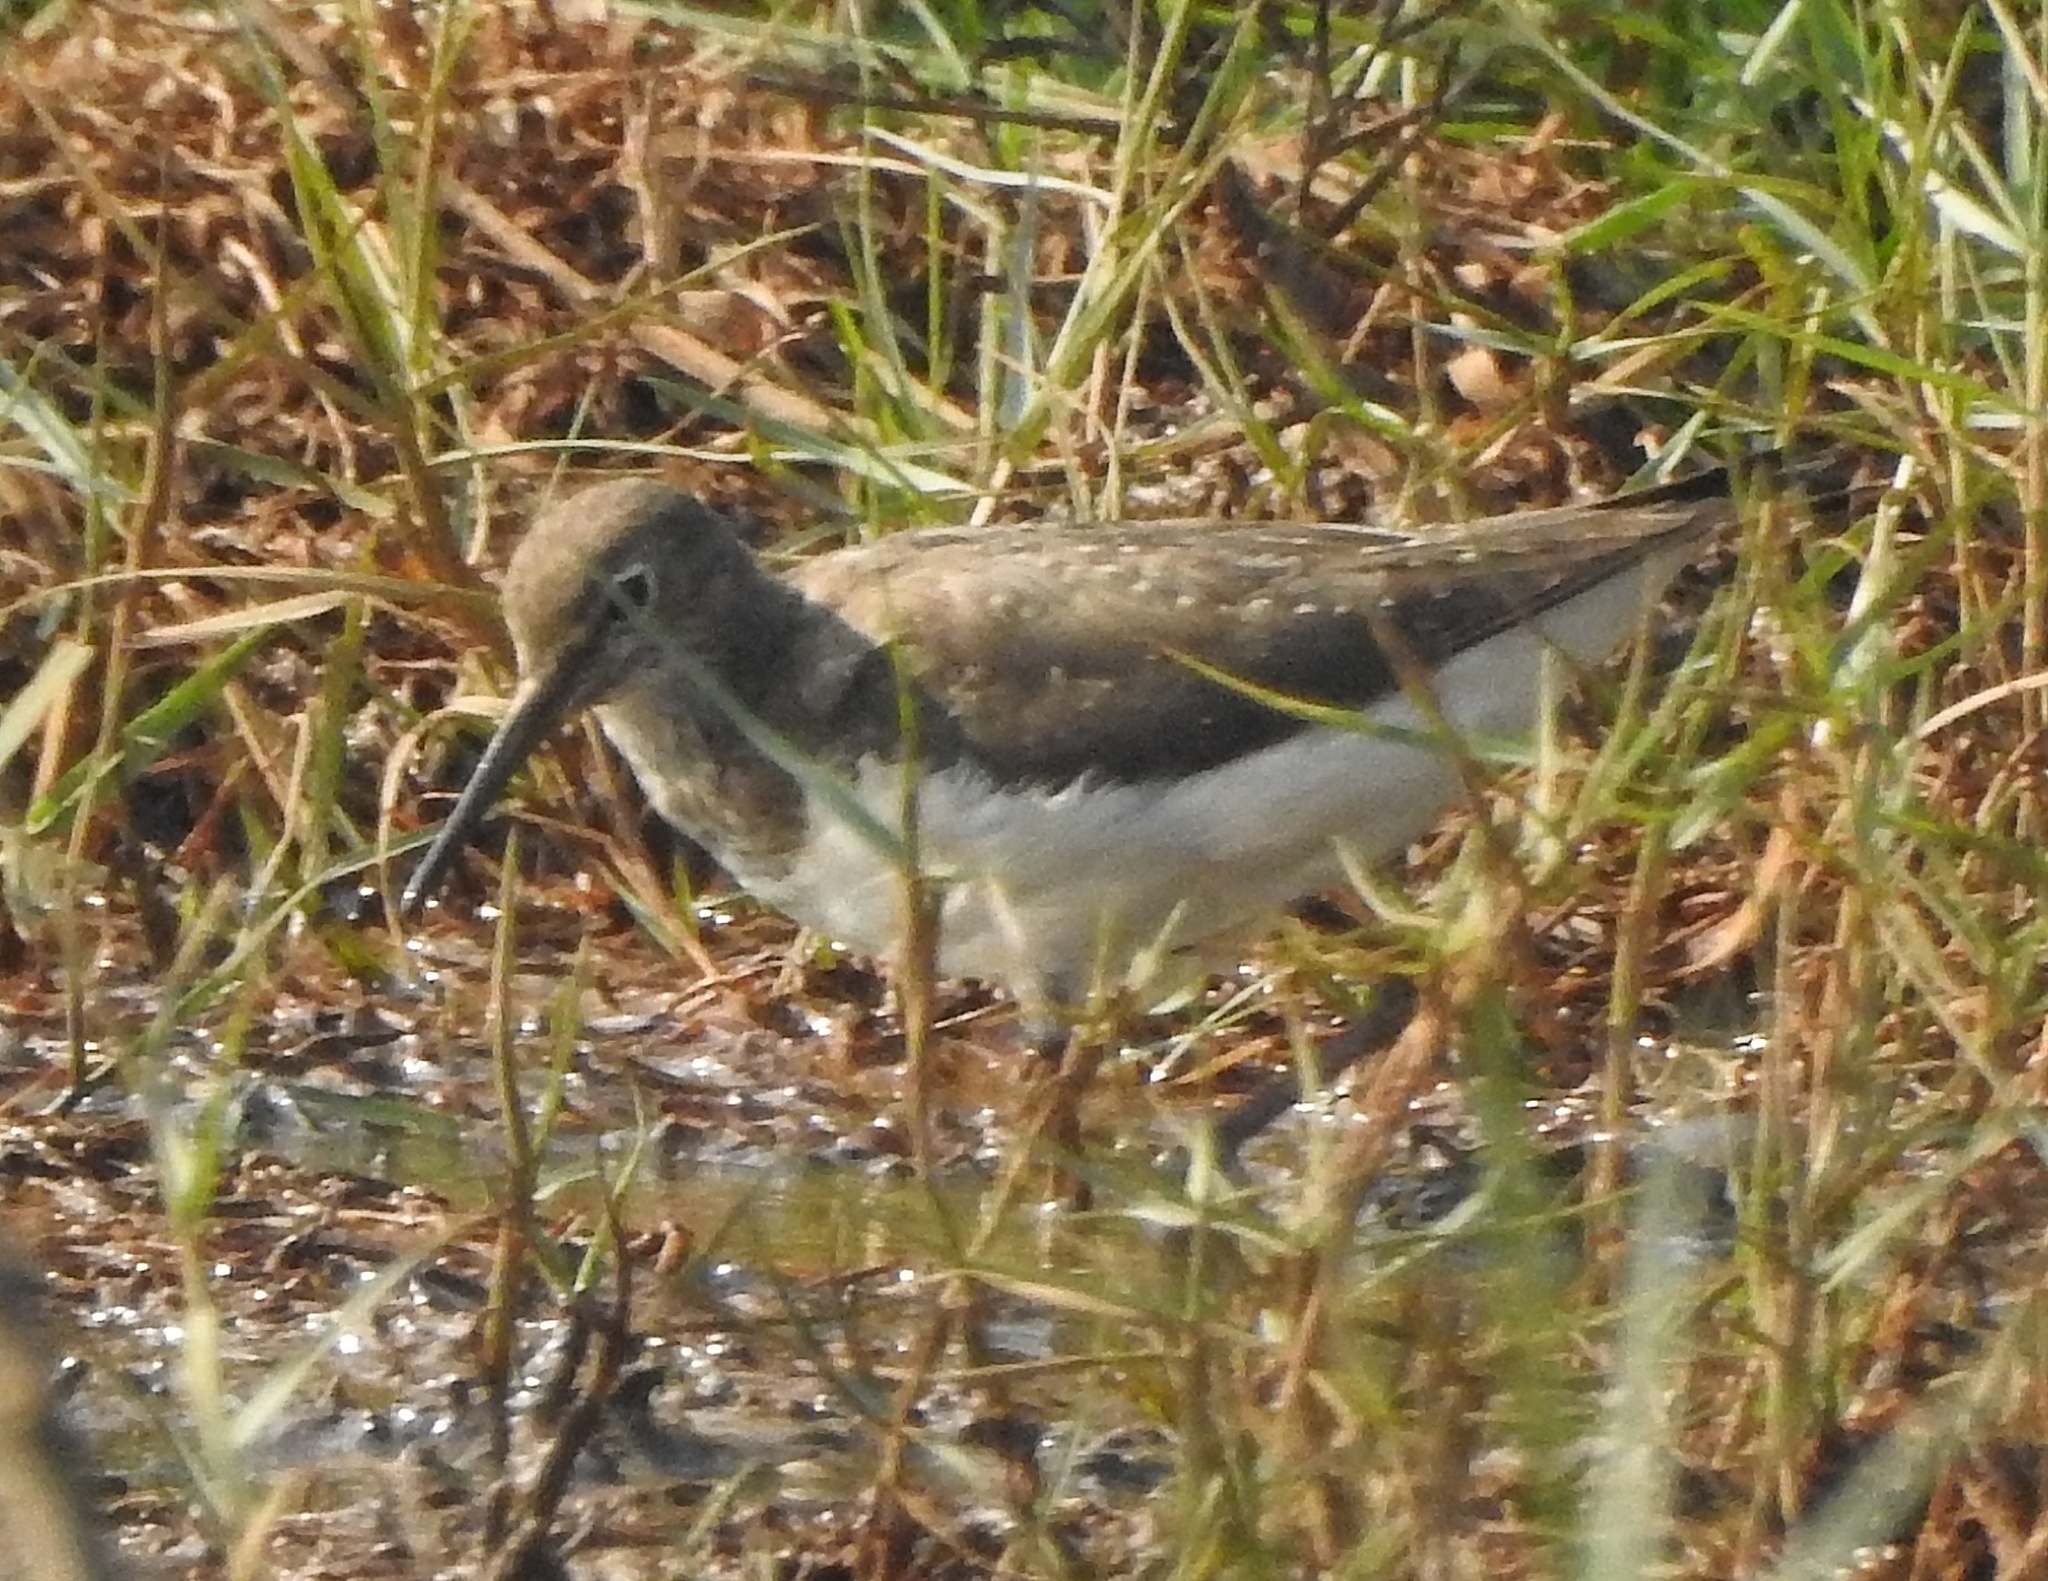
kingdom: Animalia
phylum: Chordata
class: Aves
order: Charadriiformes
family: Scolopacidae
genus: Tringa
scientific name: Tringa ochropus
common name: Green sandpiper
